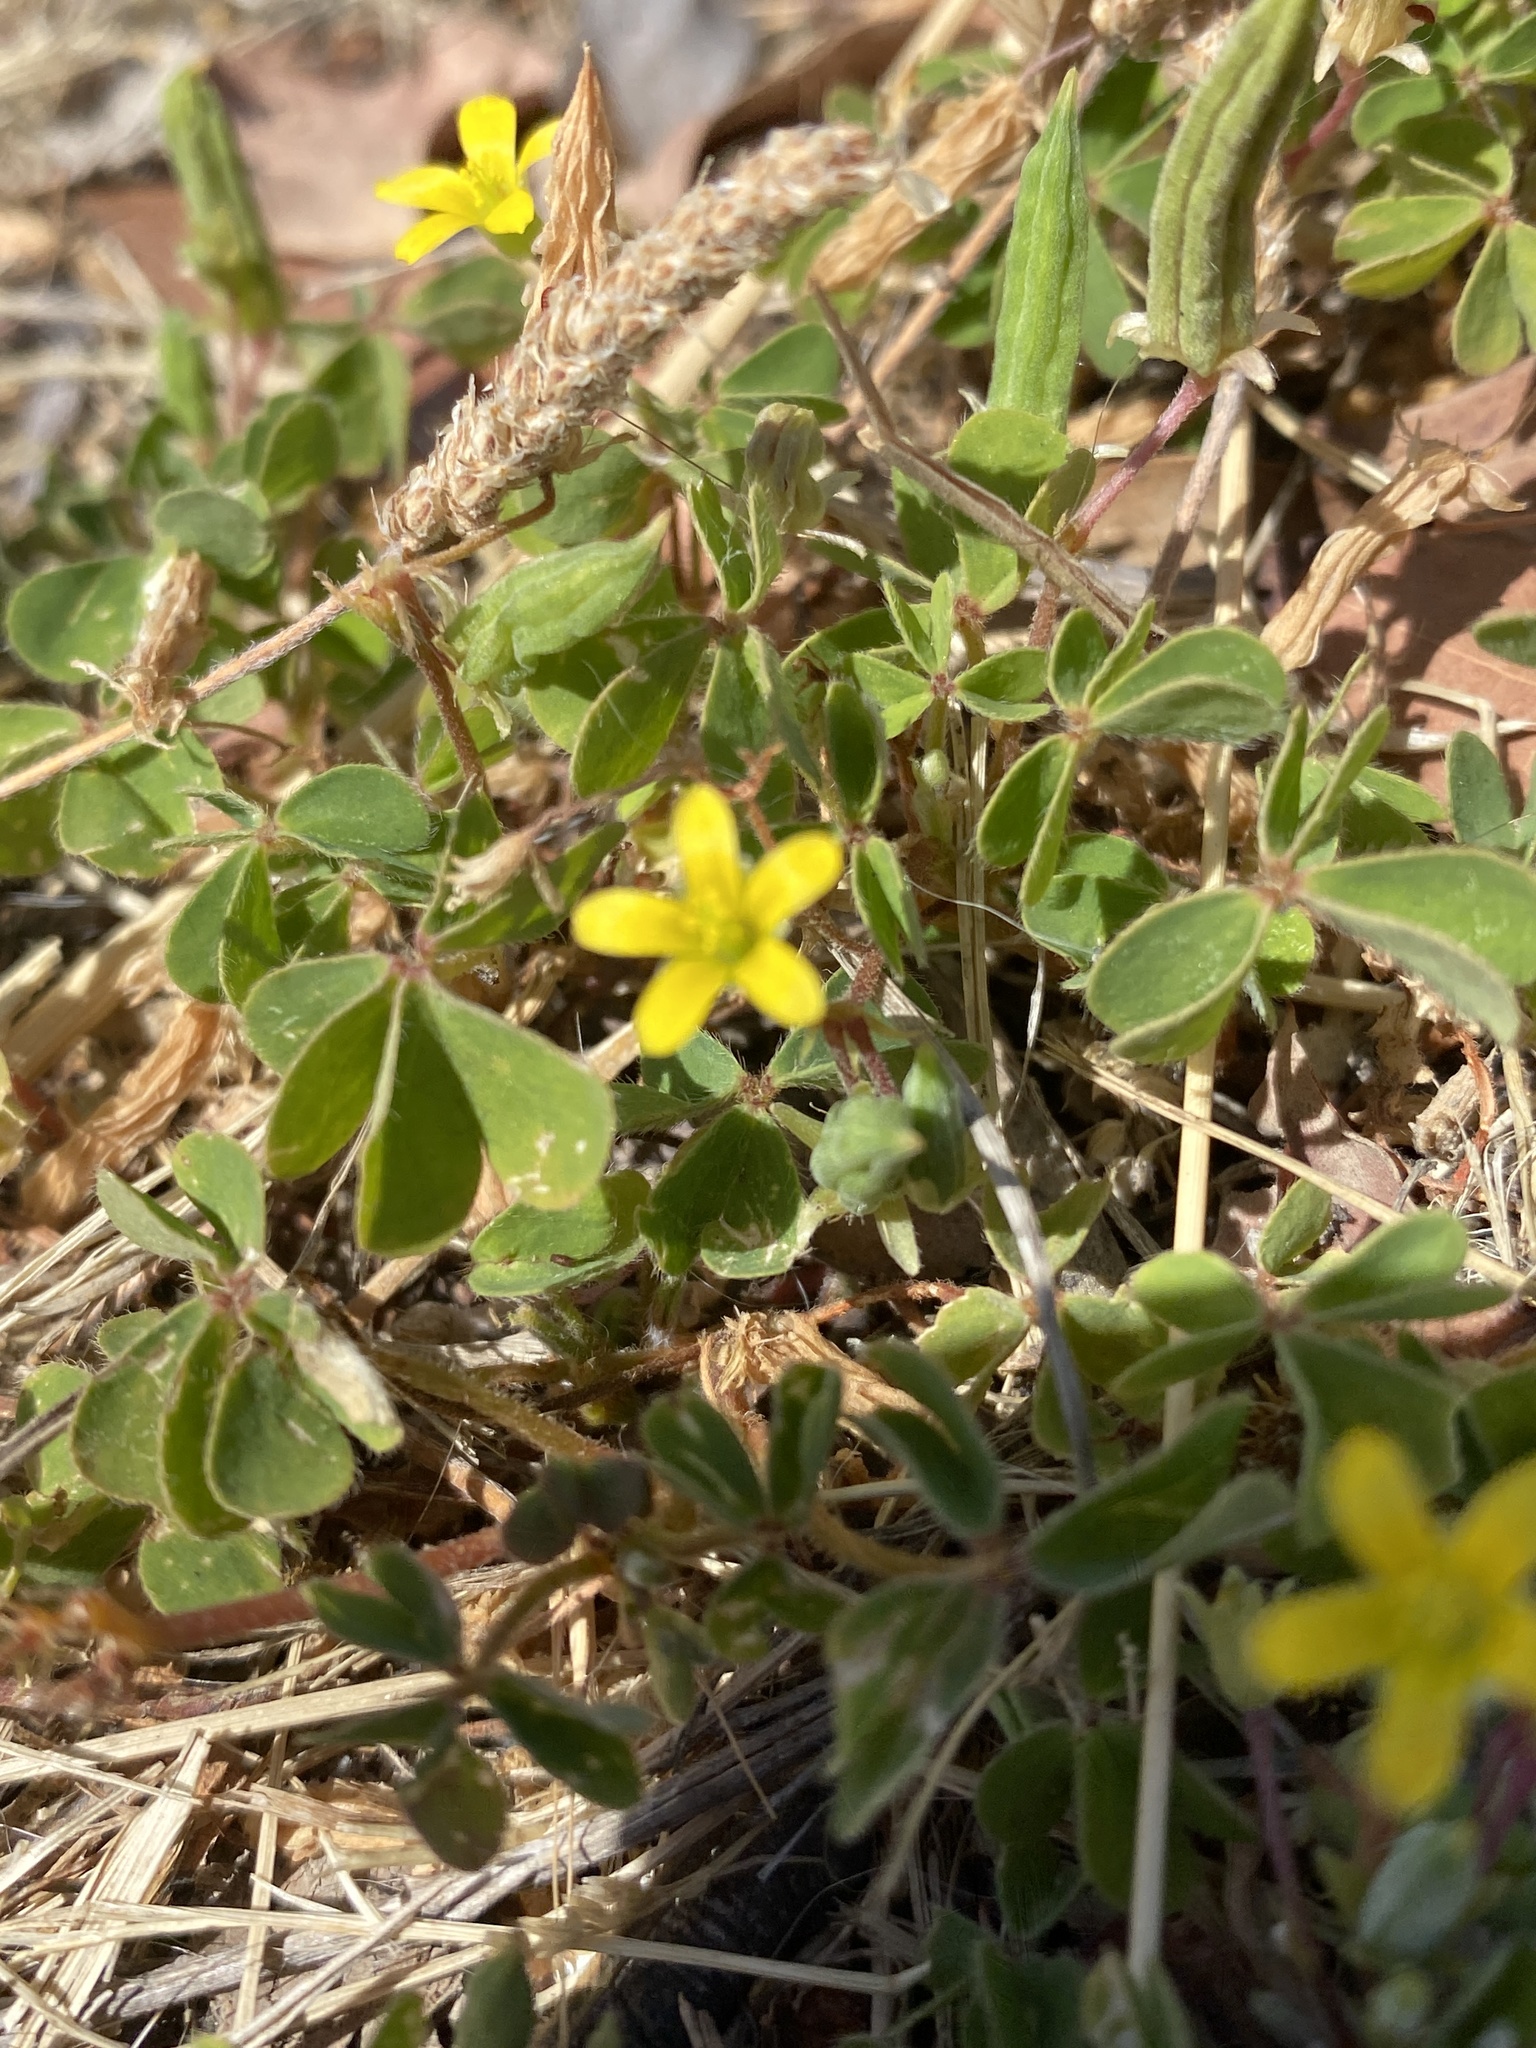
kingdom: Plantae
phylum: Tracheophyta
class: Magnoliopsida
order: Oxalidales
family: Oxalidaceae
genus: Oxalis
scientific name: Oxalis corniculata
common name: Procumbent yellow-sorrel
